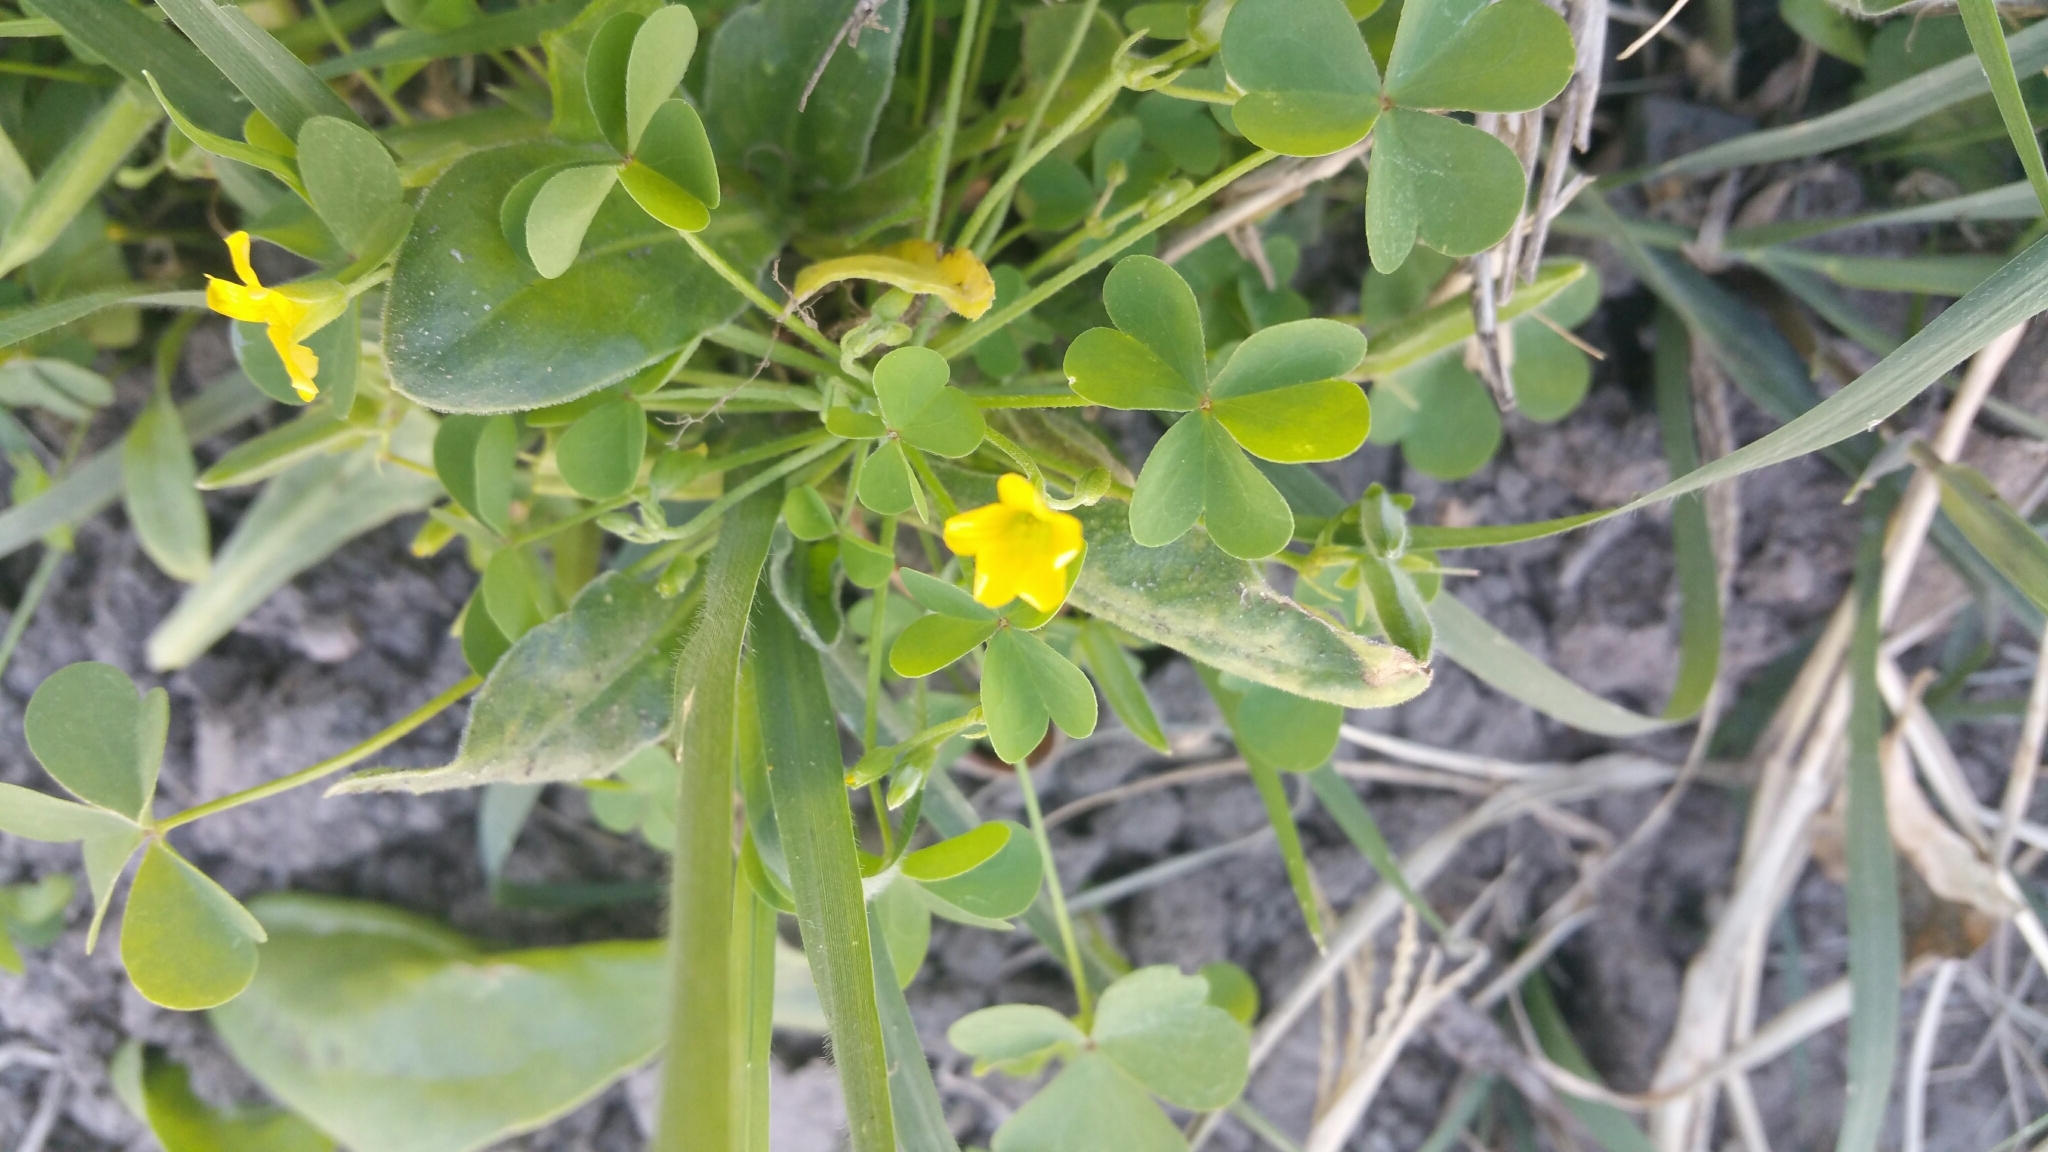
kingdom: Plantae
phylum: Tracheophyta
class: Magnoliopsida
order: Oxalidales
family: Oxalidaceae
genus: Oxalis
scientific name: Oxalis dillenii
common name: Sussex yellow-sorrel
